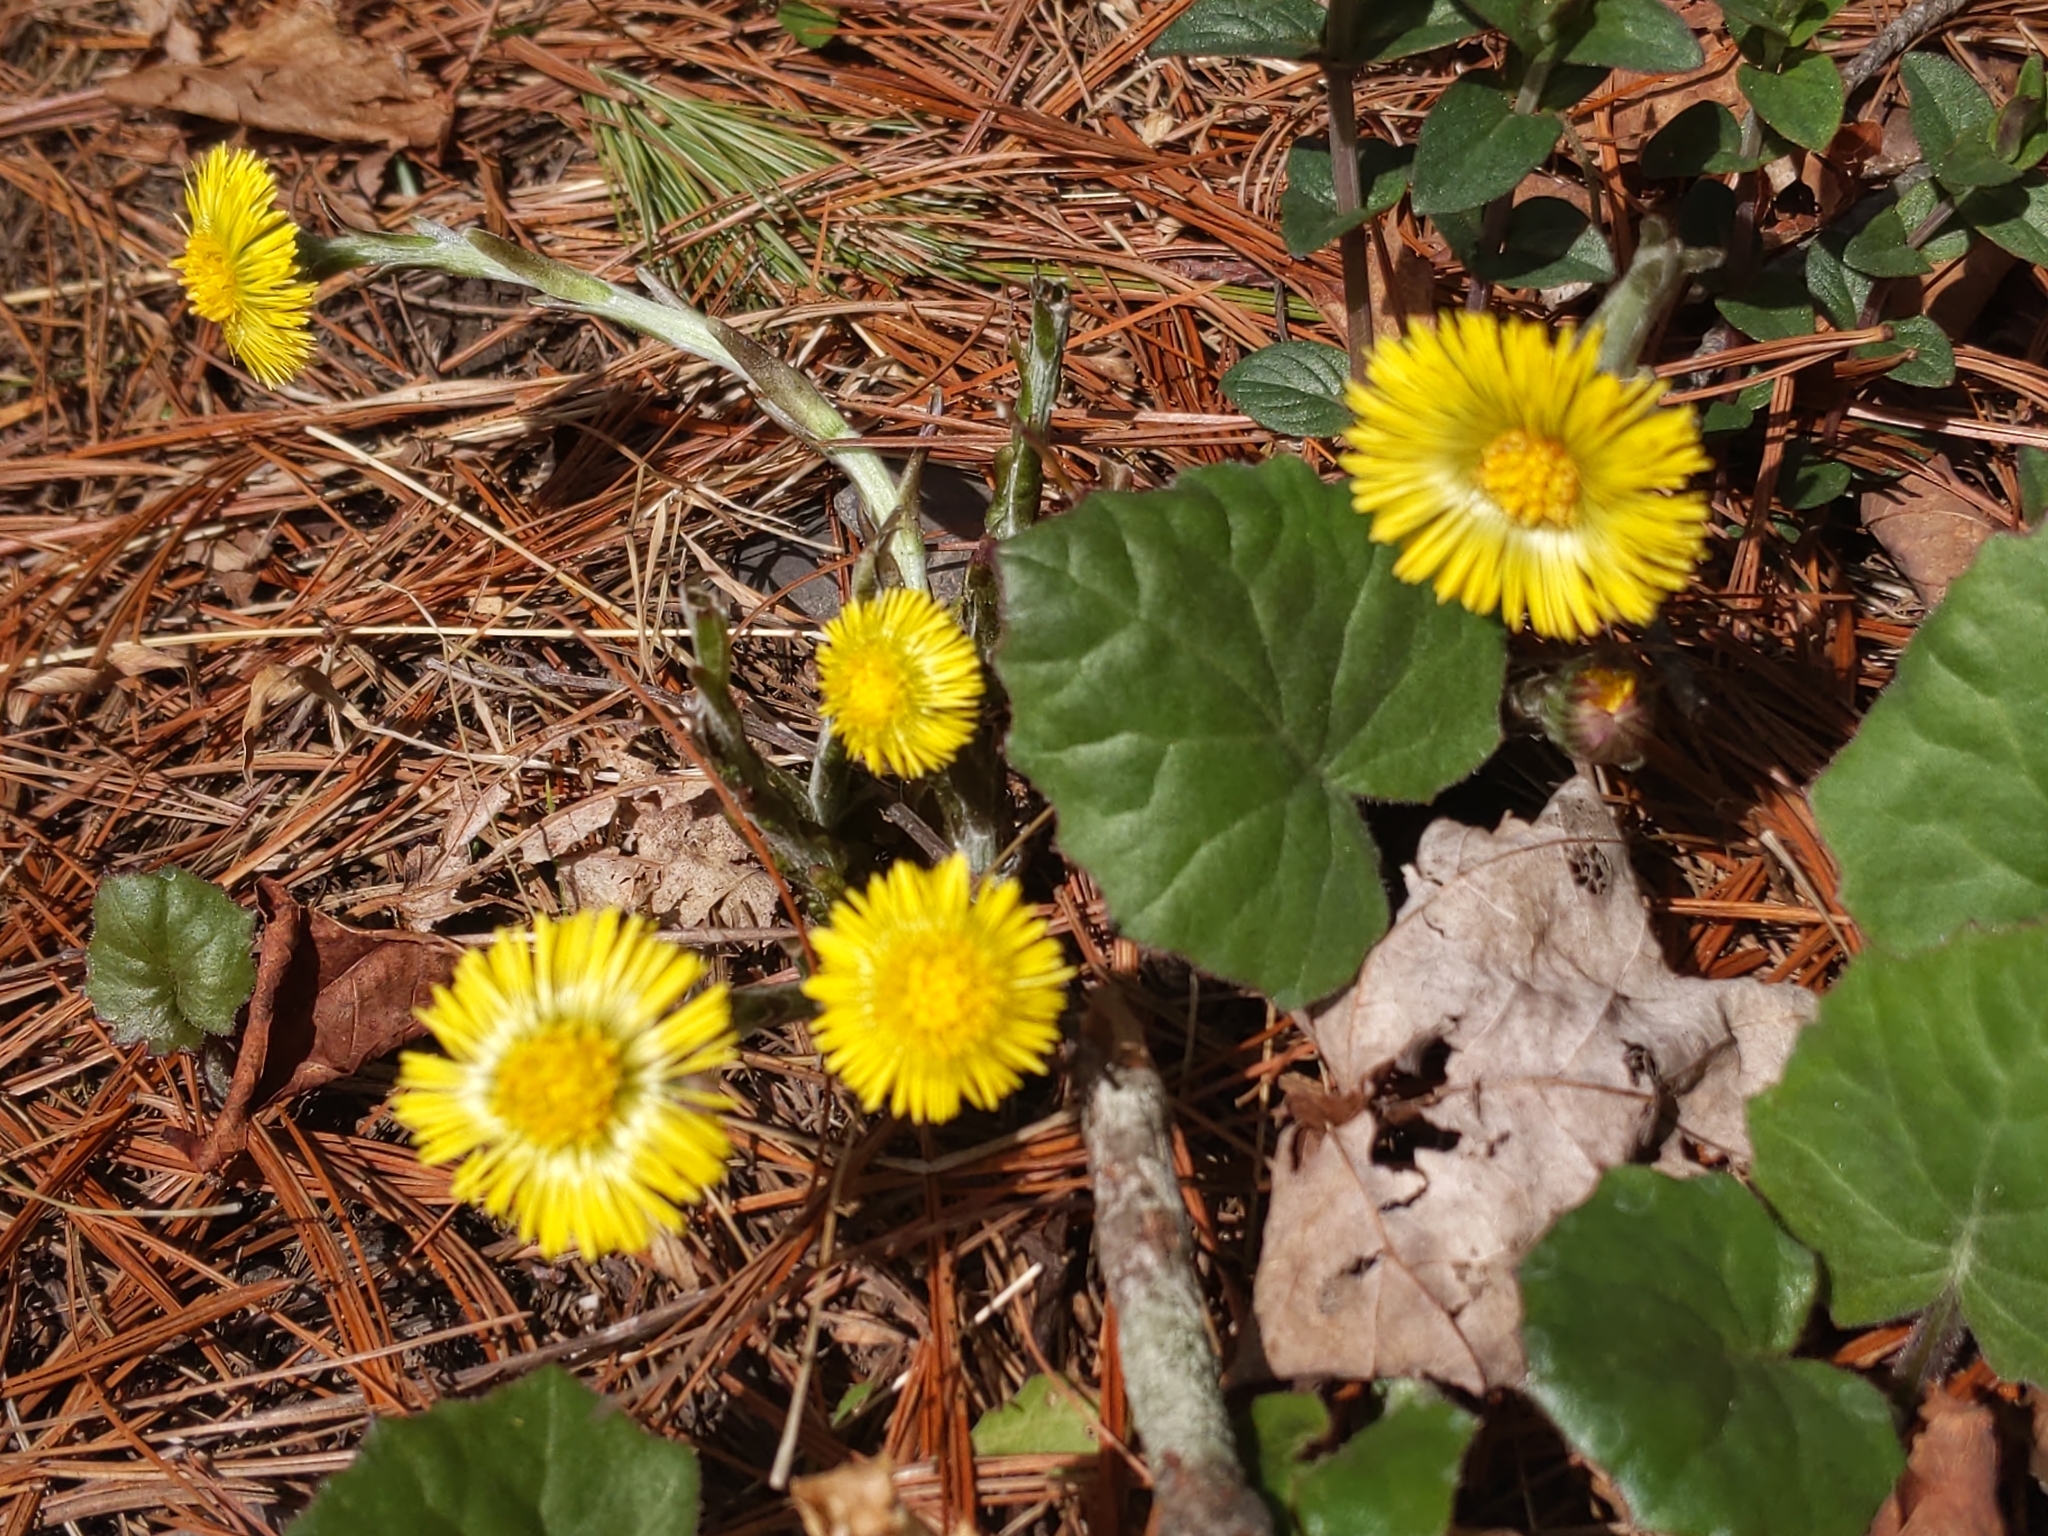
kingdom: Plantae
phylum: Tracheophyta
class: Magnoliopsida
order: Asterales
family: Asteraceae
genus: Tussilago
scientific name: Tussilago farfara
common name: Coltsfoot
